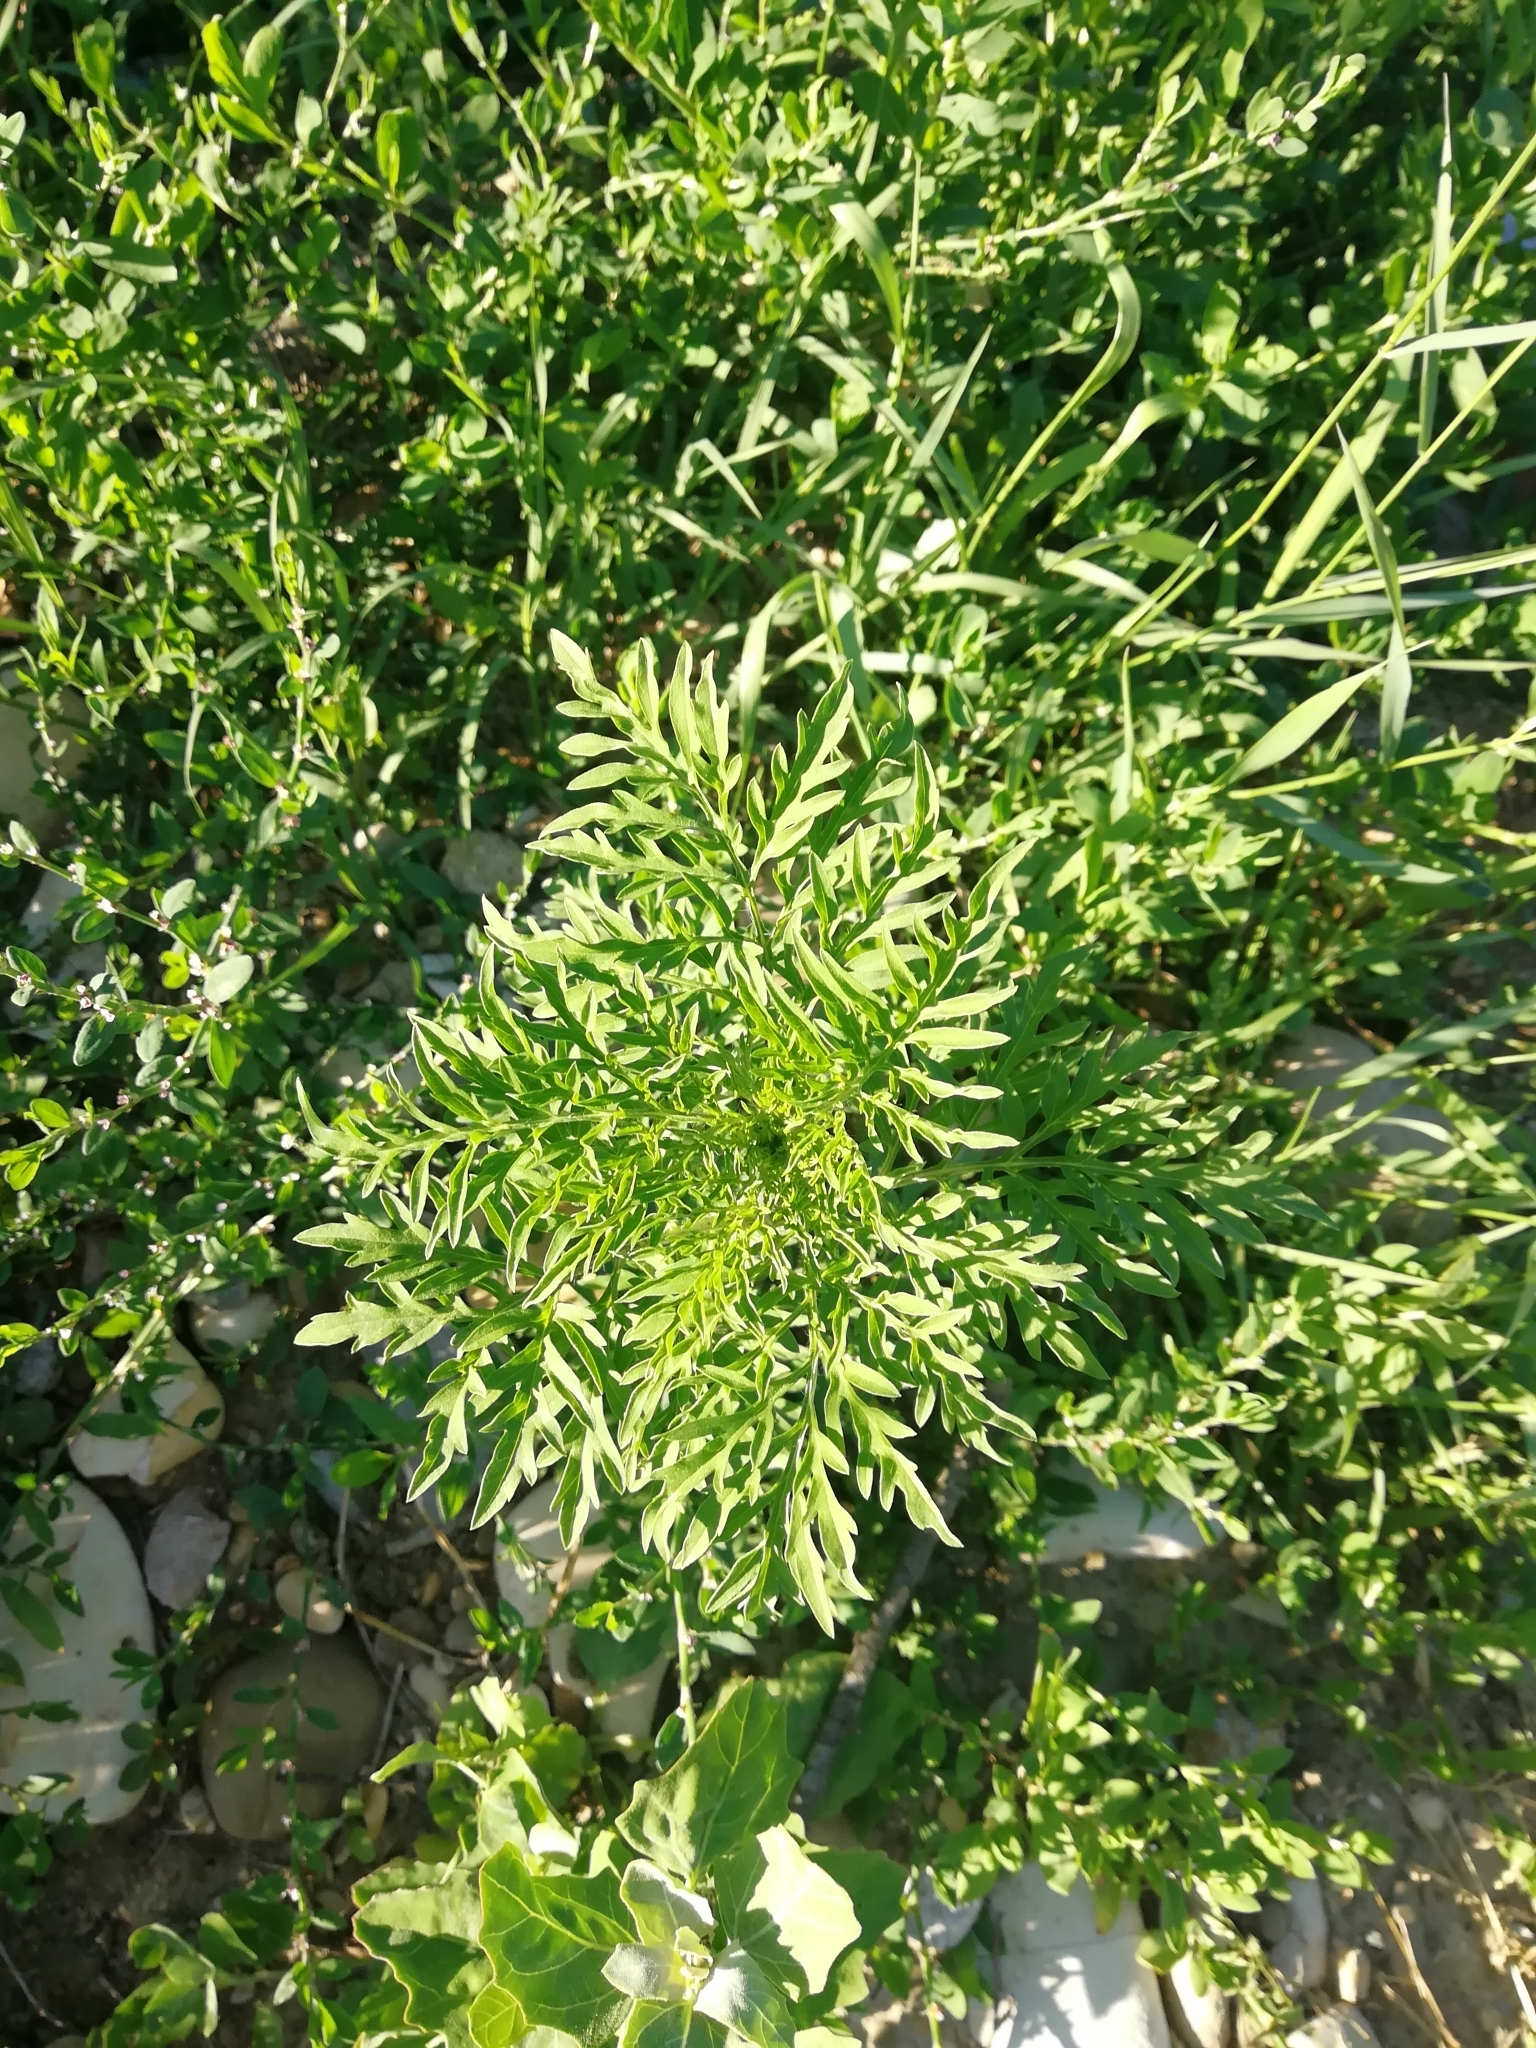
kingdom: Plantae
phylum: Tracheophyta
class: Magnoliopsida
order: Asterales
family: Asteraceae
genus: Ambrosia
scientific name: Ambrosia artemisiifolia
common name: Annual ragweed
